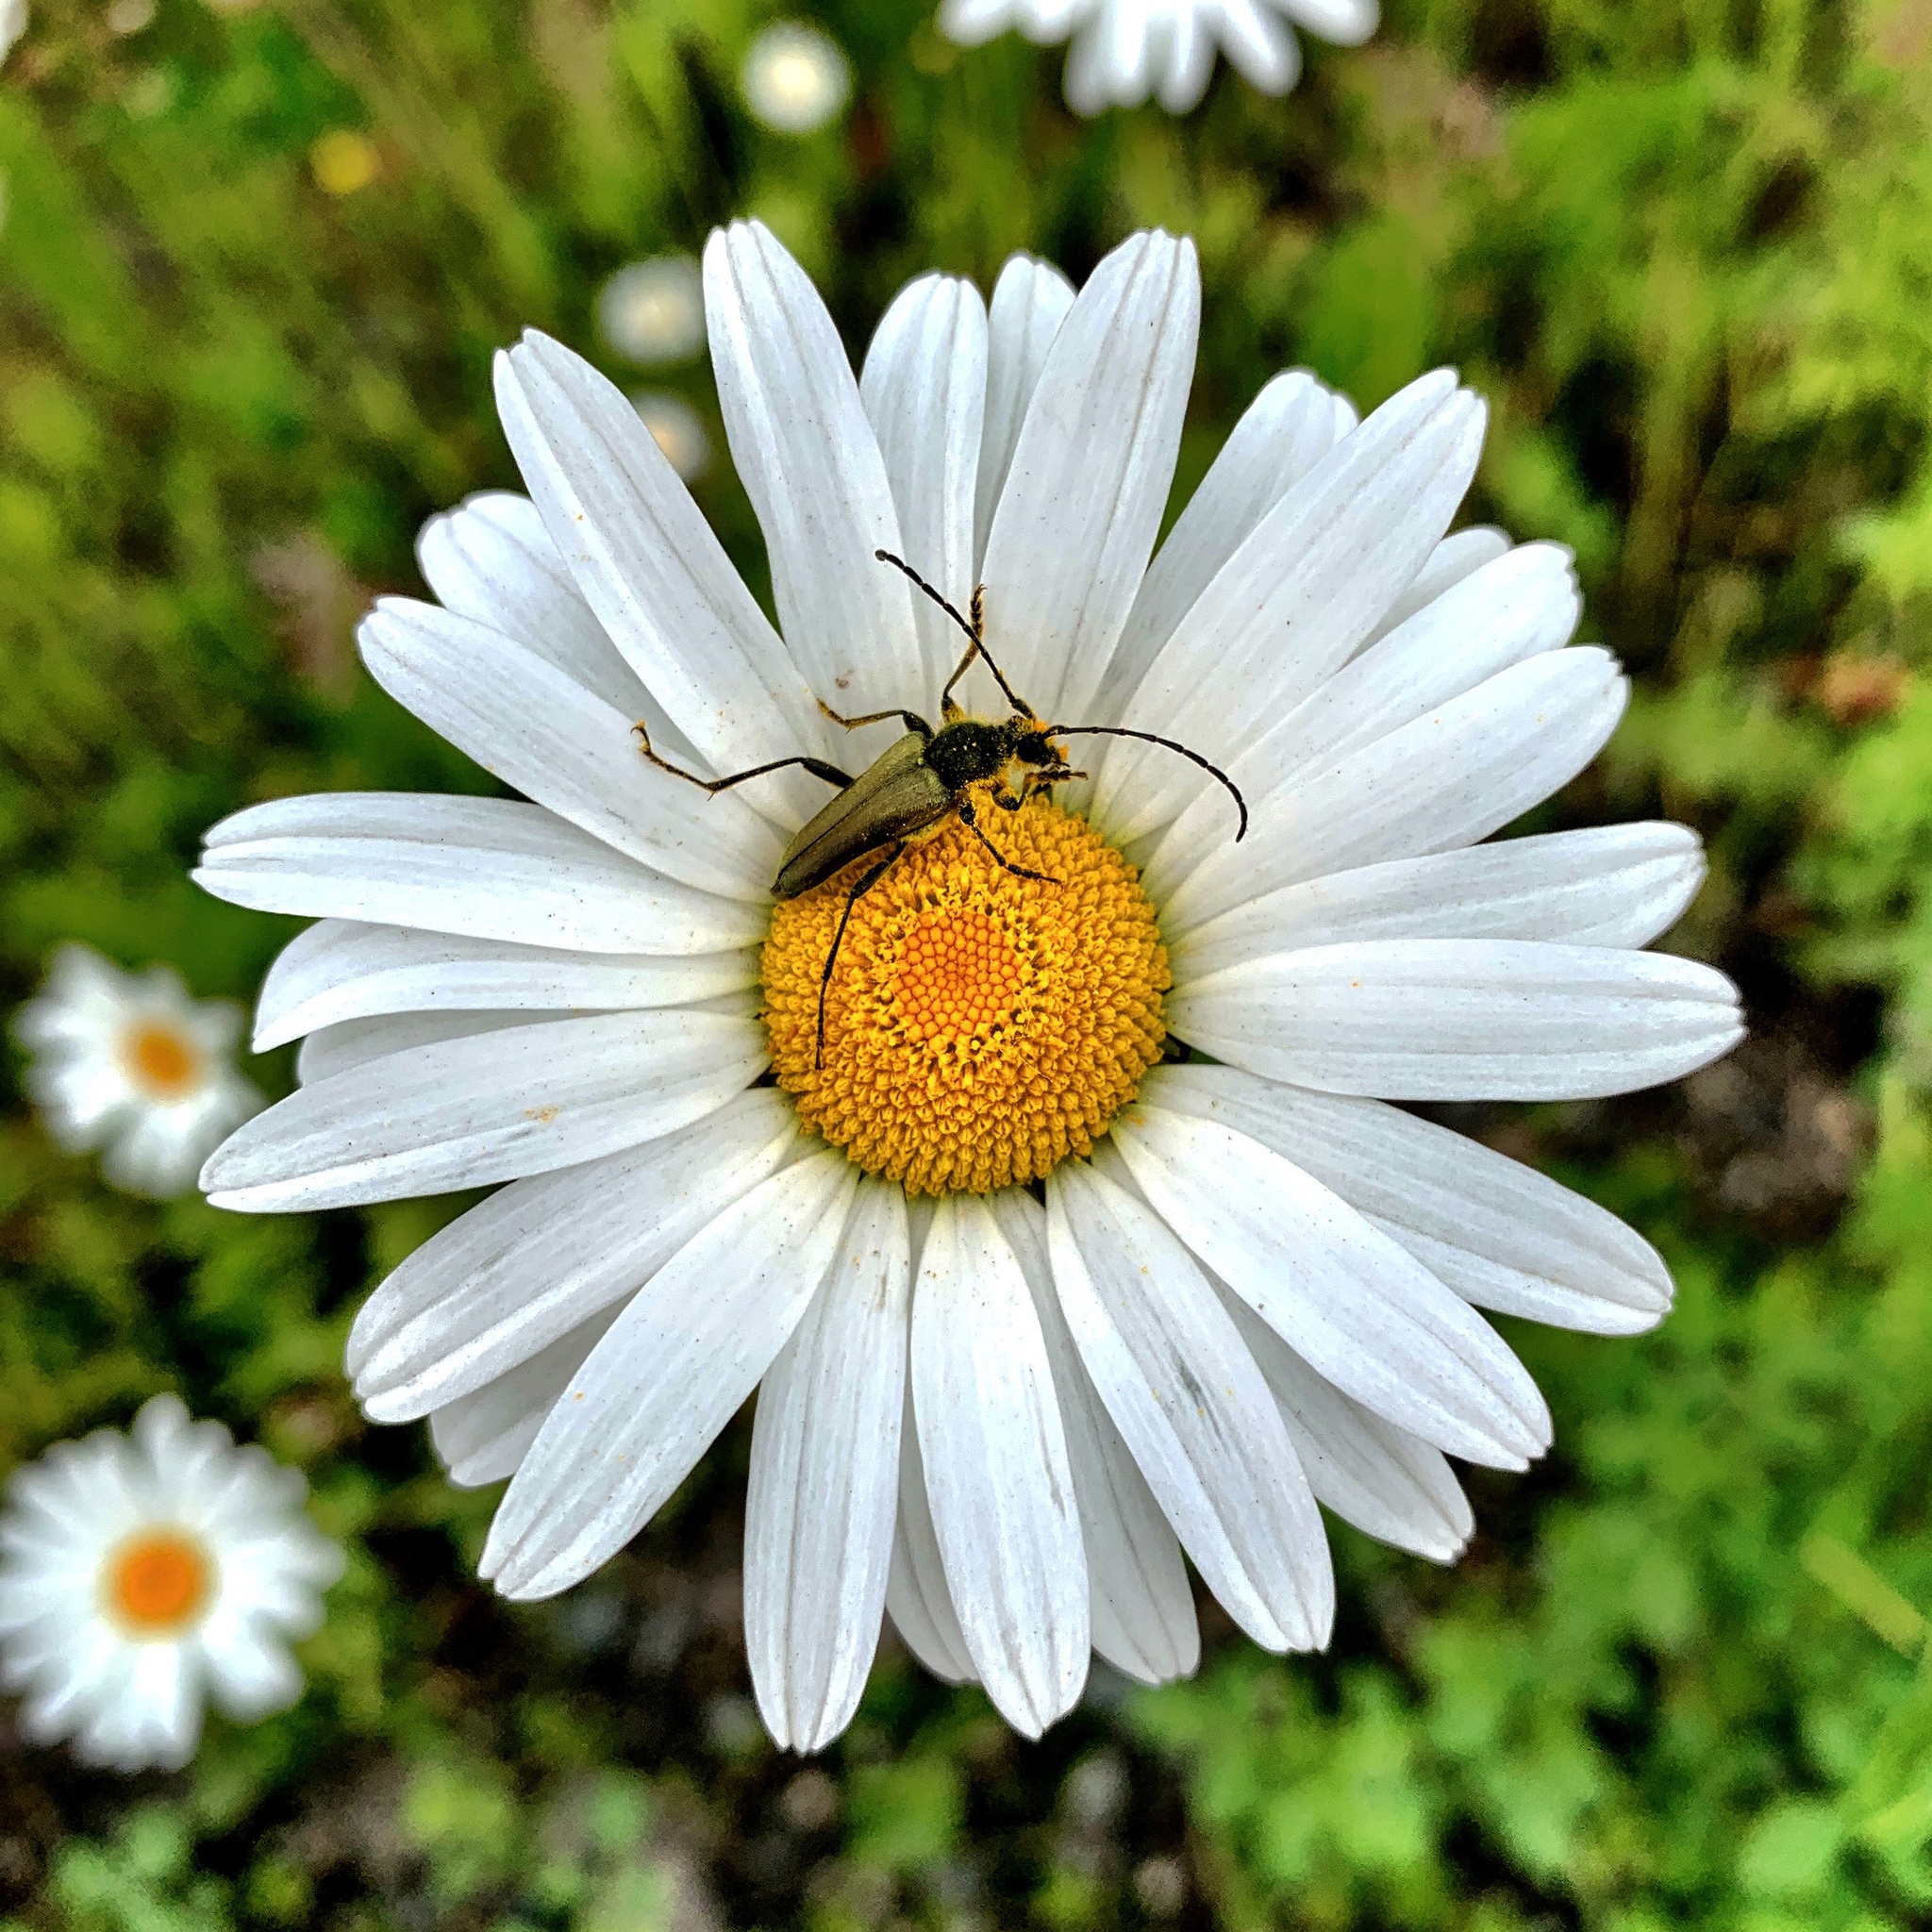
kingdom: Animalia
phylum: Arthropoda
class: Insecta
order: Coleoptera
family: Cerambycidae
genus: Cosmosalia
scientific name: Cosmosalia chrysocoma
